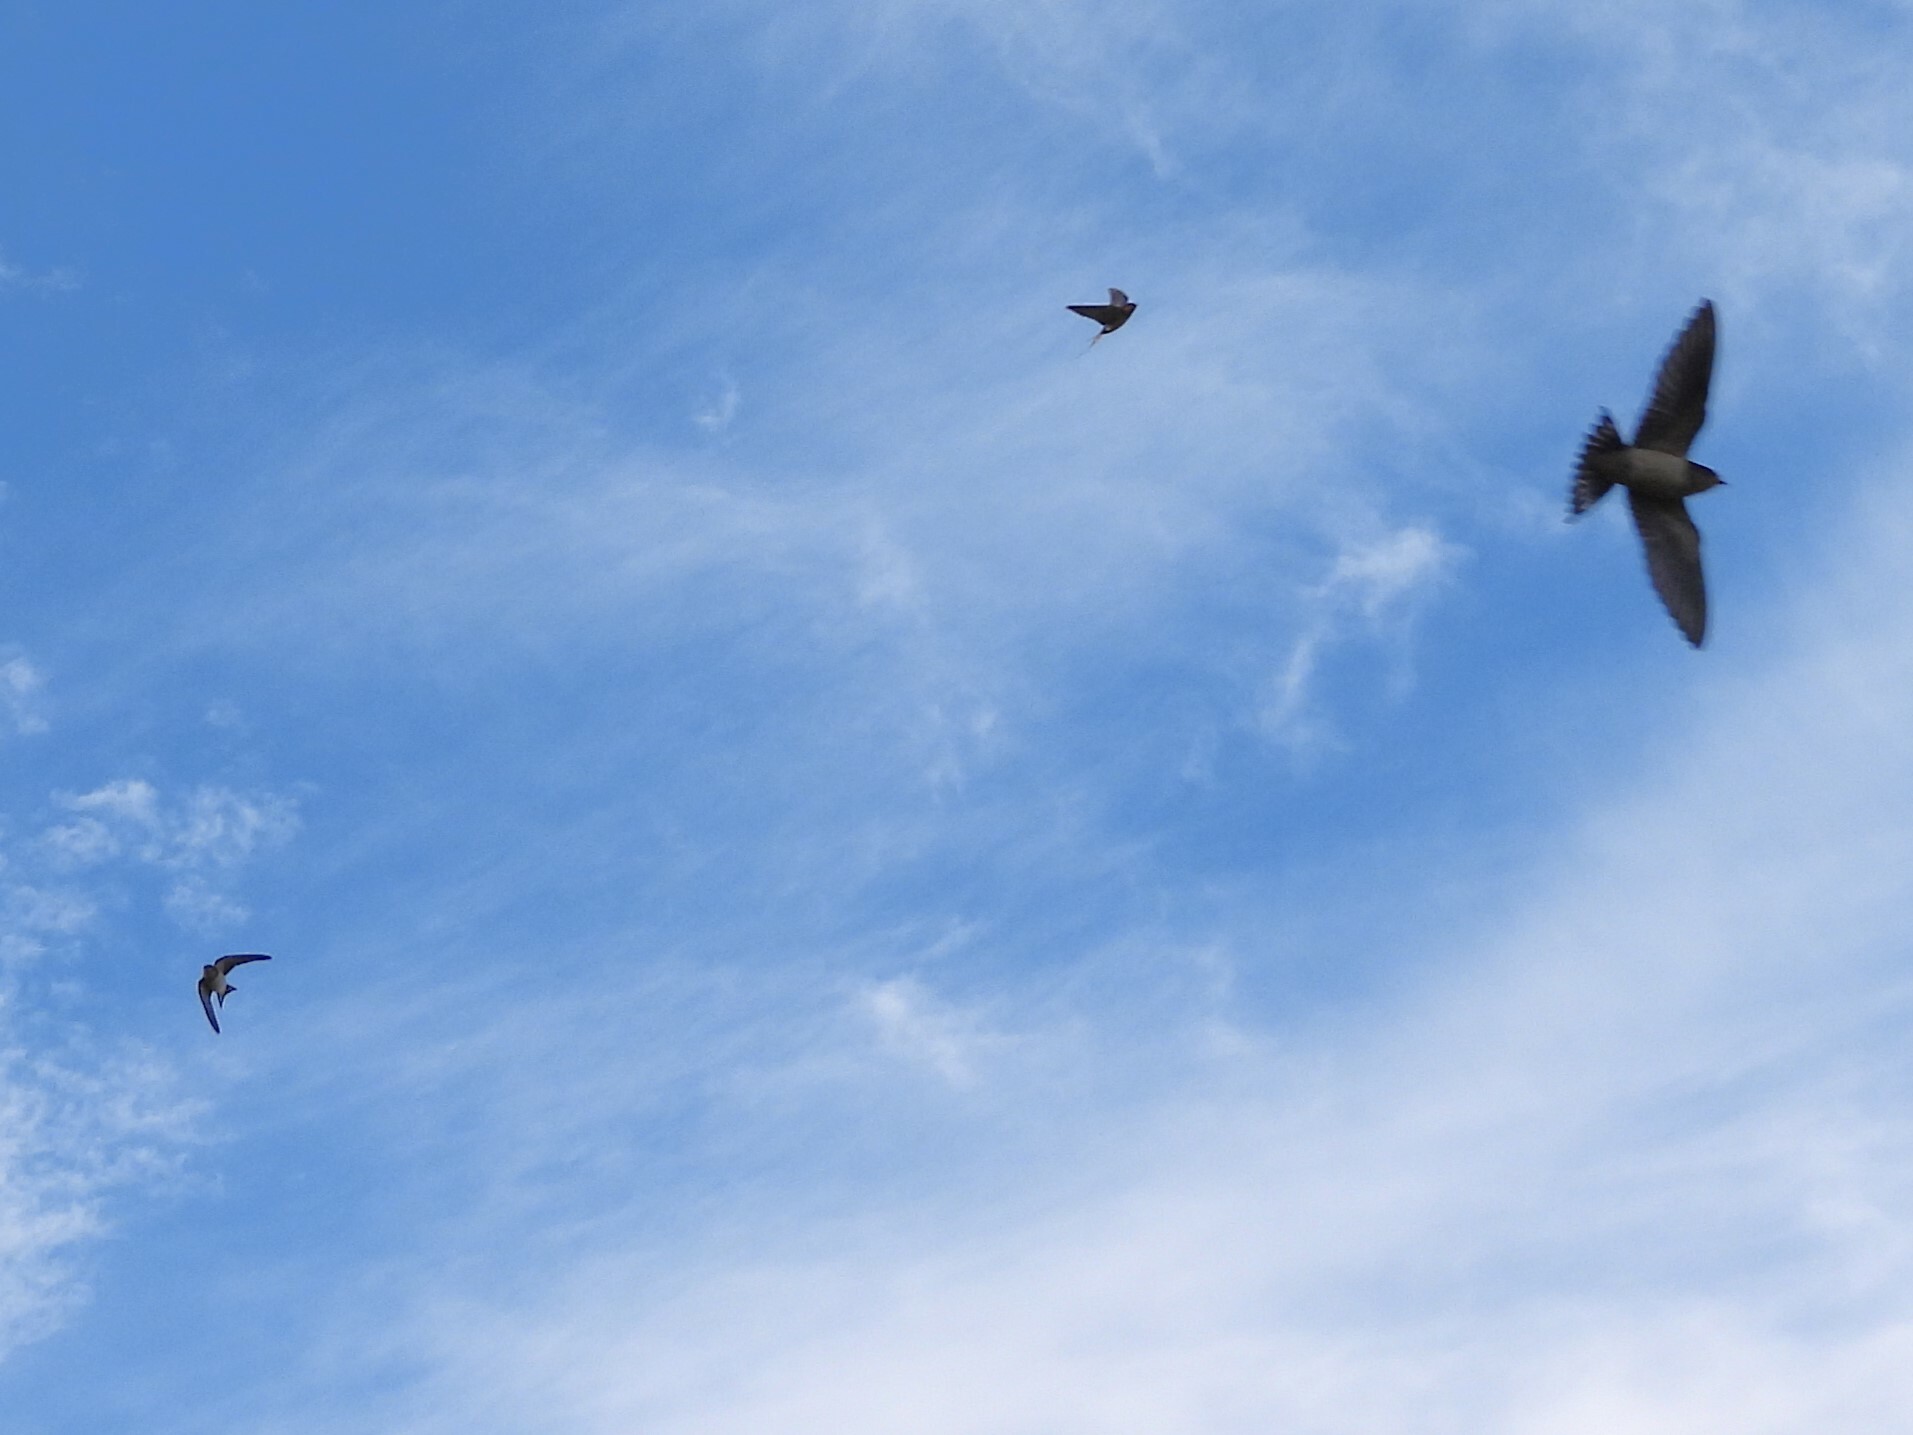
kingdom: Animalia
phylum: Chordata
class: Aves
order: Passeriformes
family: Hirundinidae
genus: Hirundo
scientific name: Hirundo rustica
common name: Barn swallow
